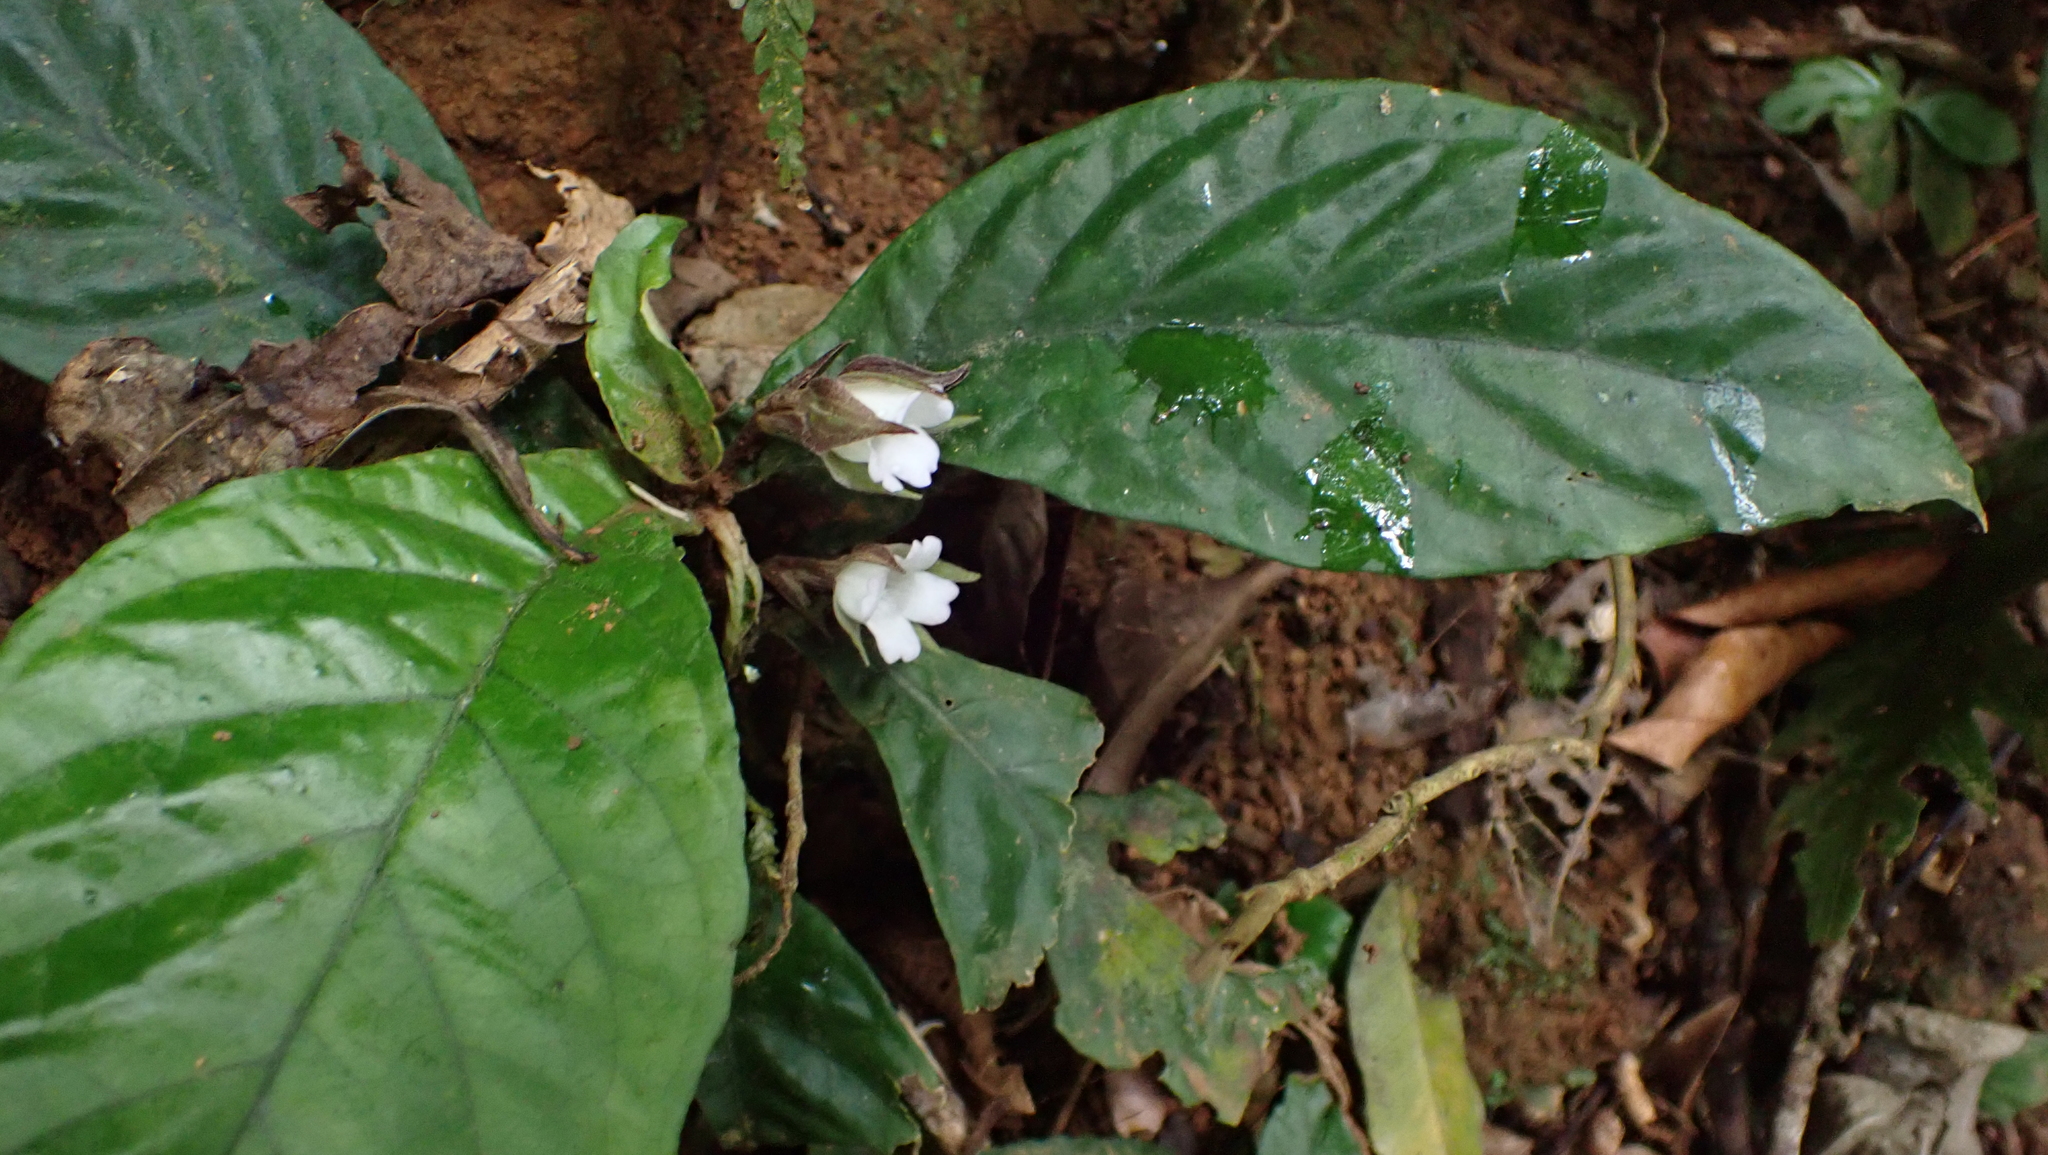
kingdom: Plantae
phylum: Tracheophyta
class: Magnoliopsida
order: Lamiales
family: Gesneriaceae
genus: Napeanthus
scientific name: Napeanthus bracteatus
